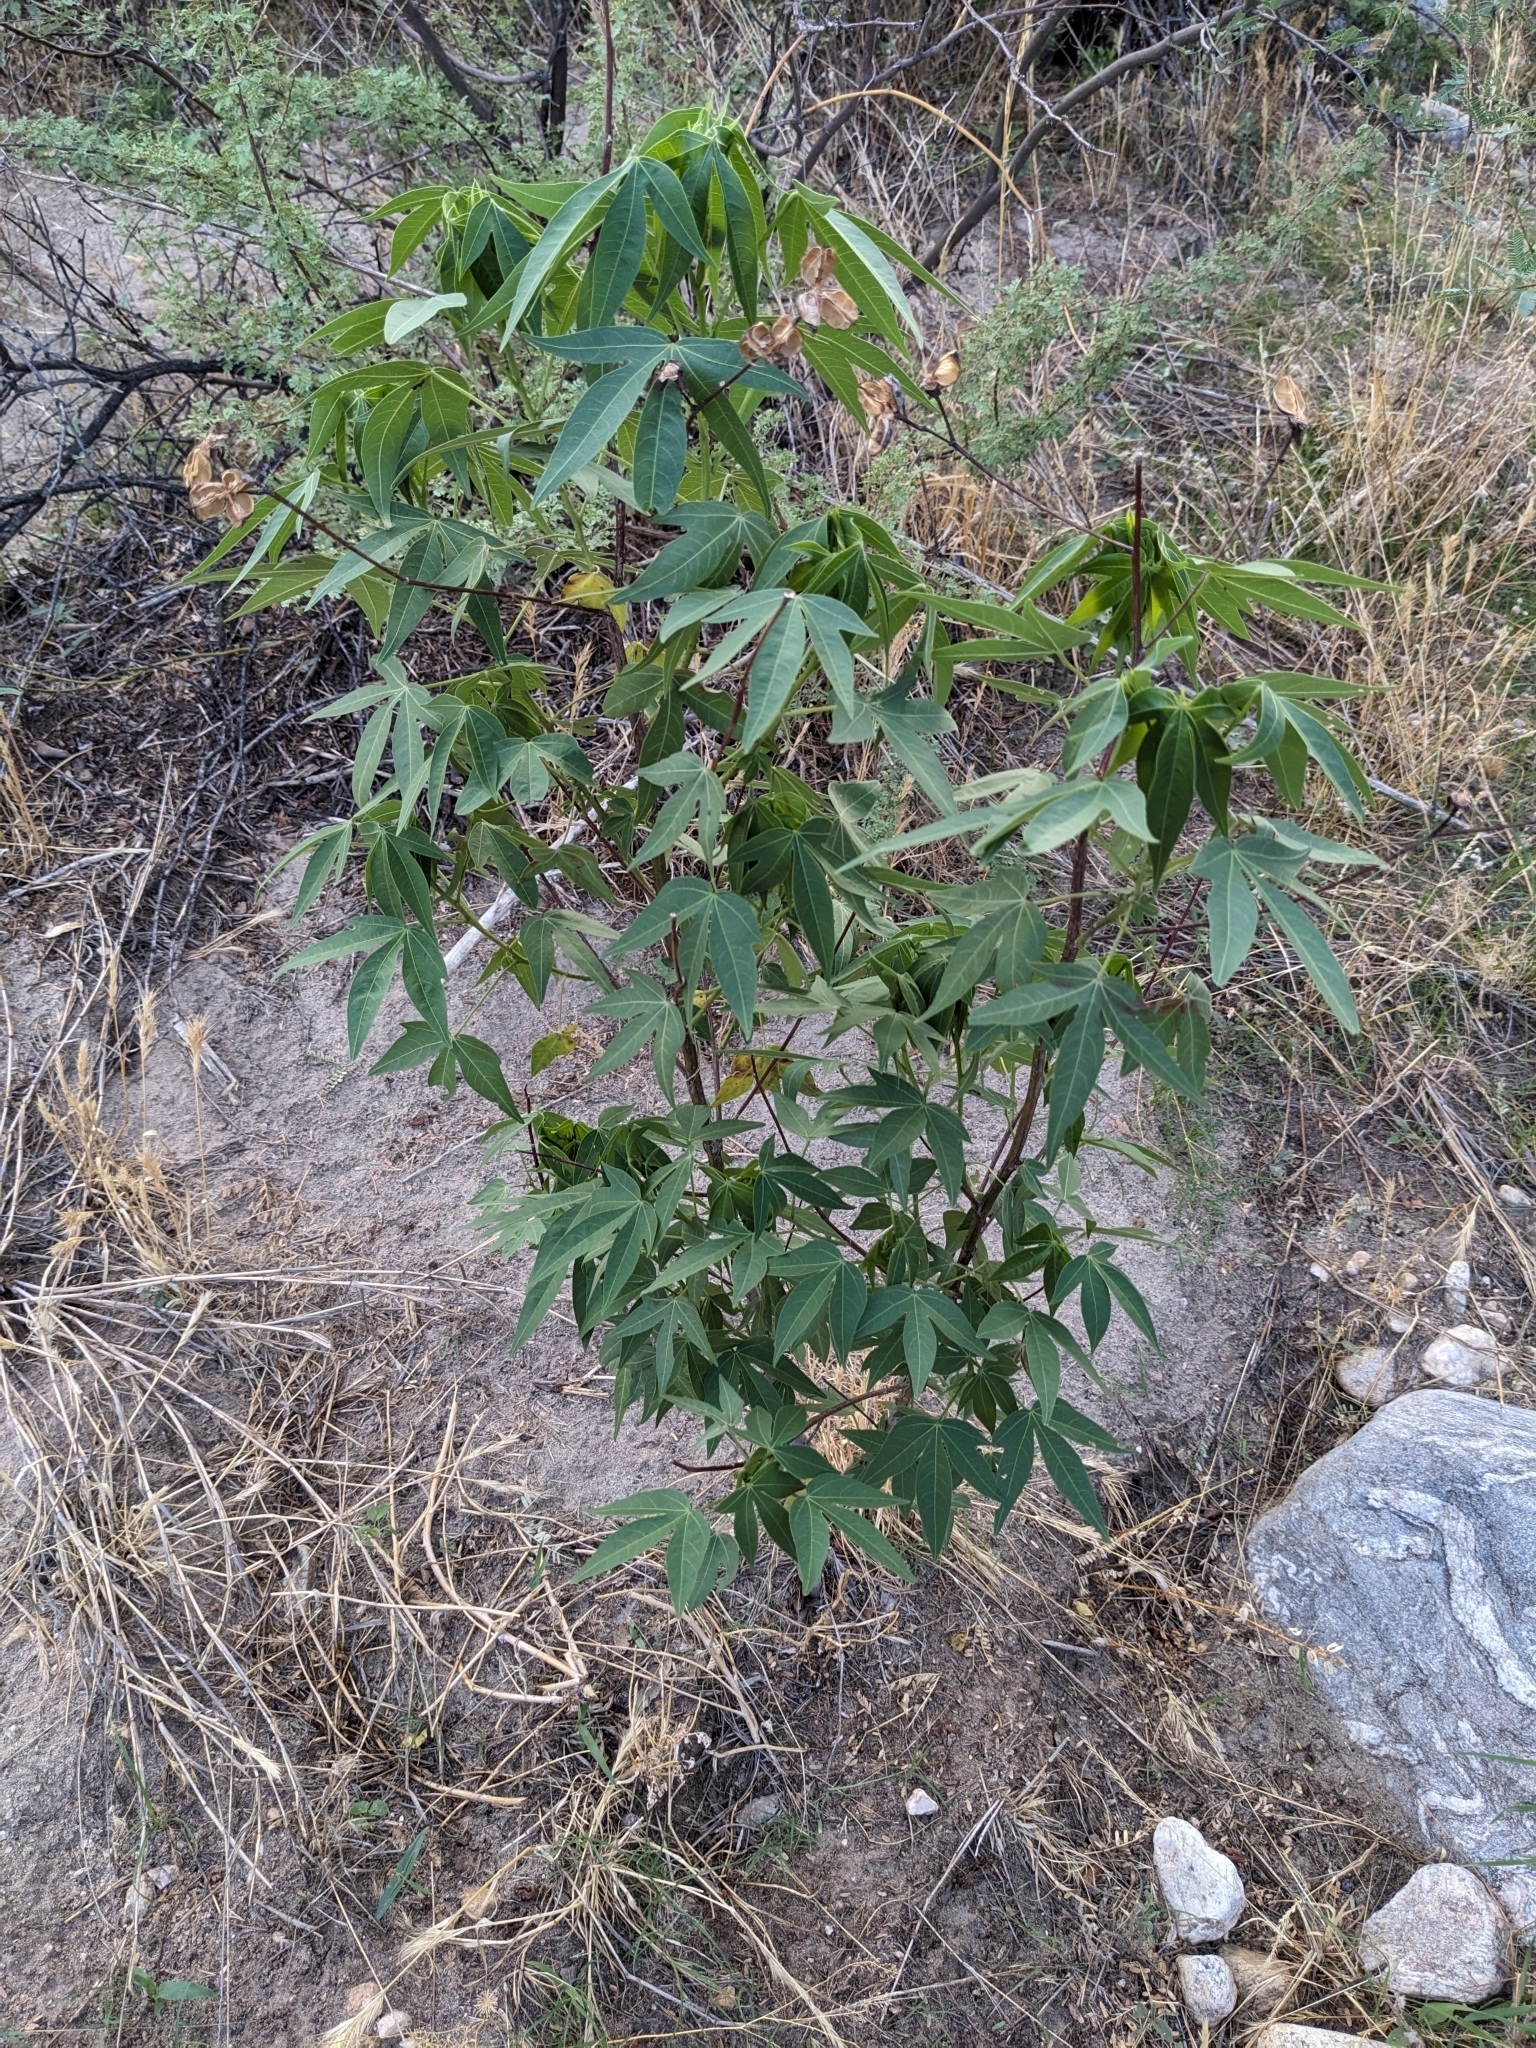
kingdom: Plantae
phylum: Tracheophyta
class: Magnoliopsida
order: Malvales
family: Malvaceae
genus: Gossypium
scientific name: Gossypium thurberi
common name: Desert cotton
